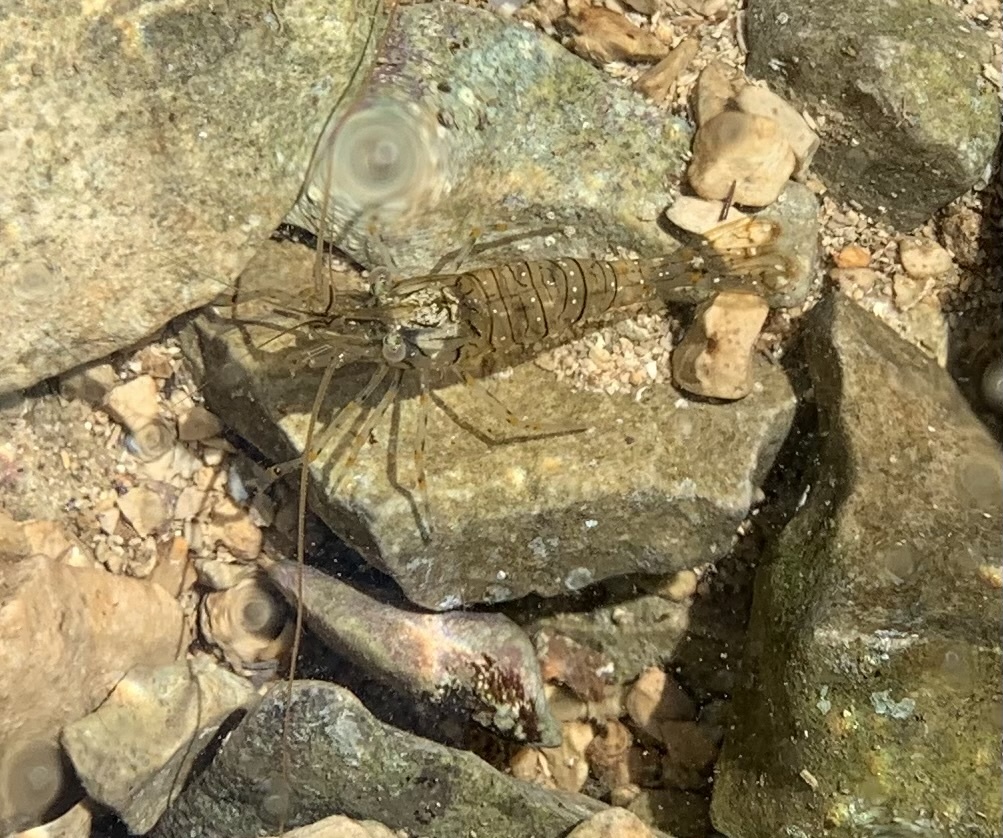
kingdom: Animalia
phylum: Arthropoda
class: Malacostraca
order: Decapoda
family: Palaemonidae
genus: Palaemon
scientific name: Palaemon elegans
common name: Grass prawm
